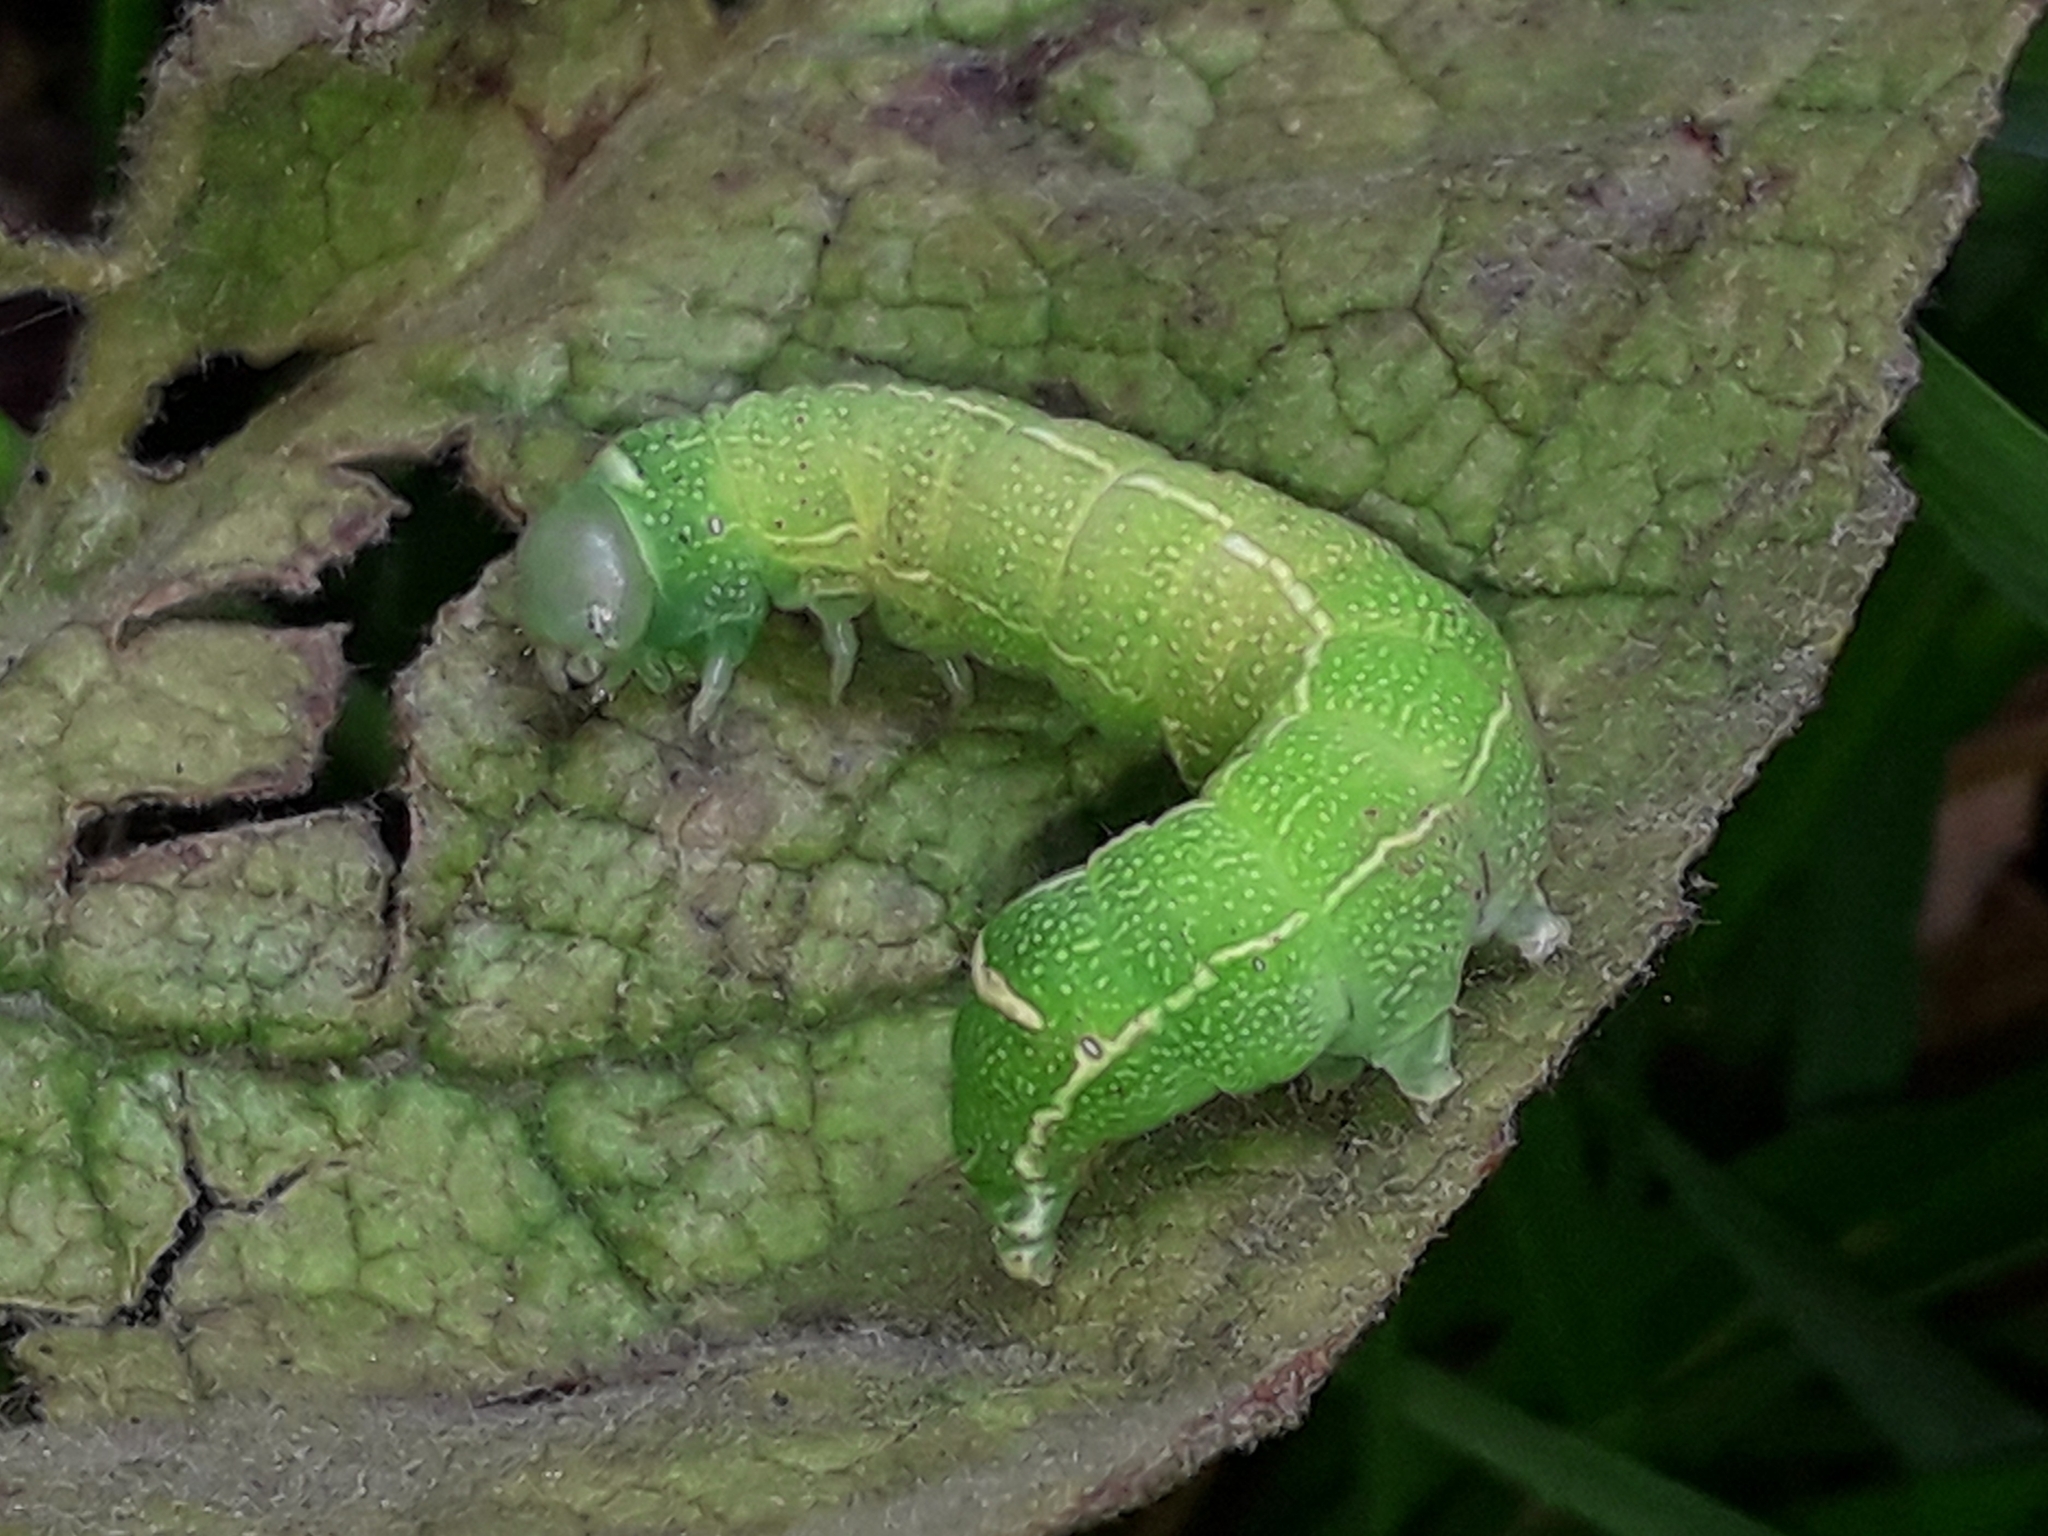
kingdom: Animalia
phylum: Arthropoda
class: Insecta
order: Lepidoptera
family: Noctuidae
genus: Orthosia
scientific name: Orthosia cerasi
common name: Common quaker
